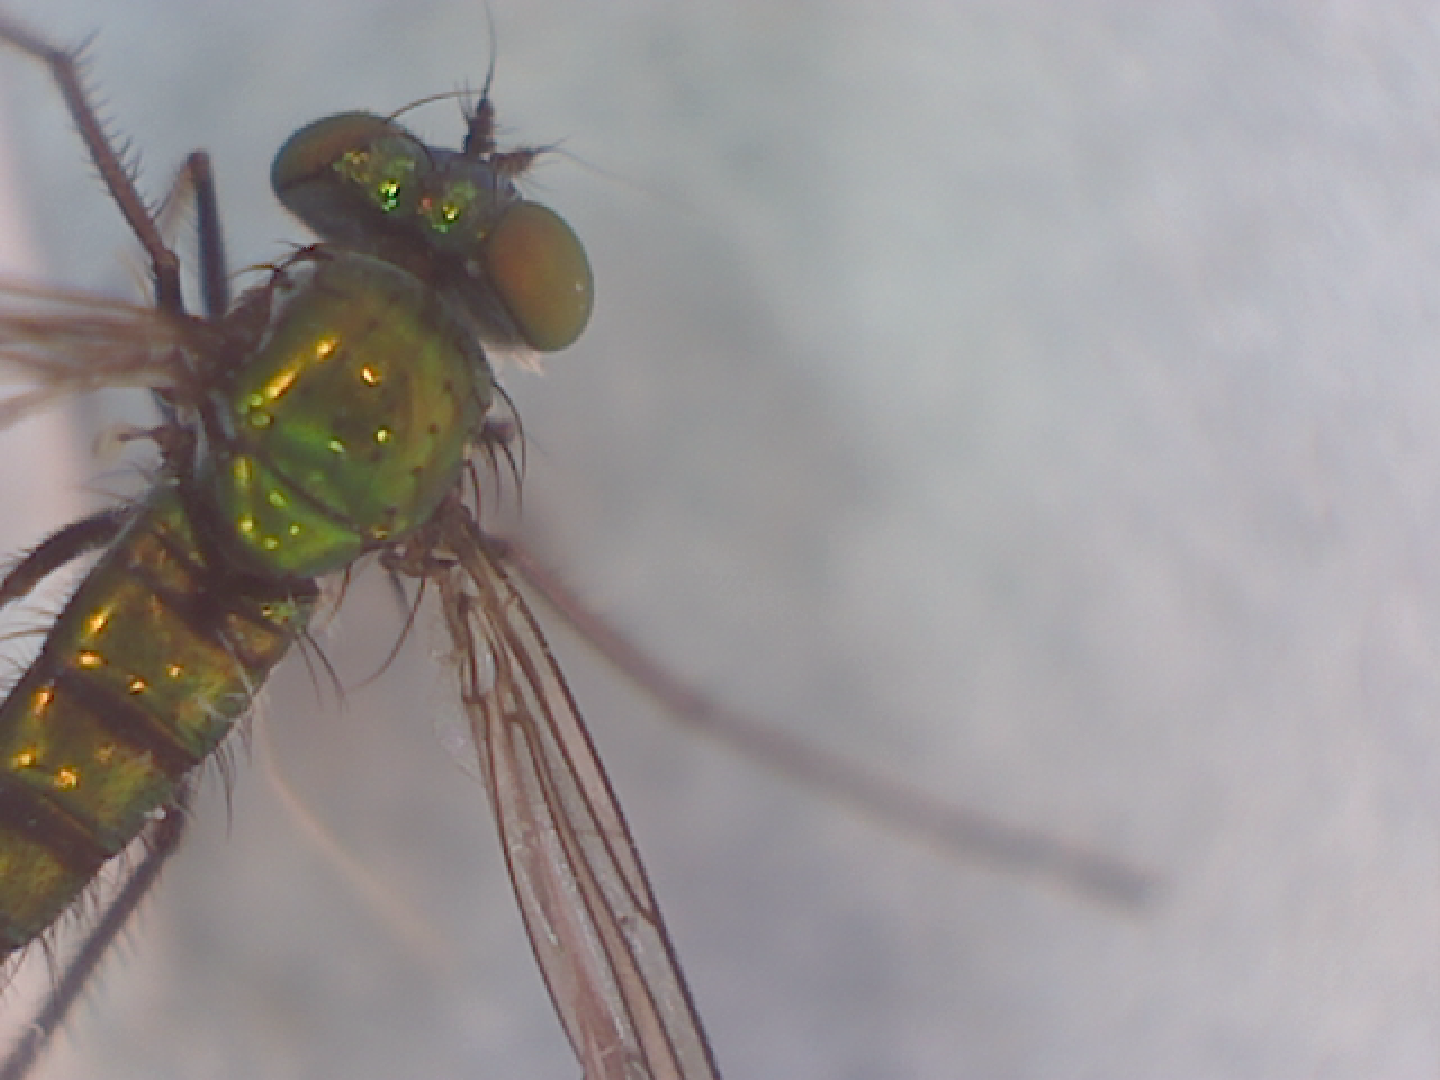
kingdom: Animalia
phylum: Arthropoda
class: Insecta
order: Diptera
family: Dolichopodidae
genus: Condylostylus
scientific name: Condylostylus longicornis
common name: Long-legged fly
